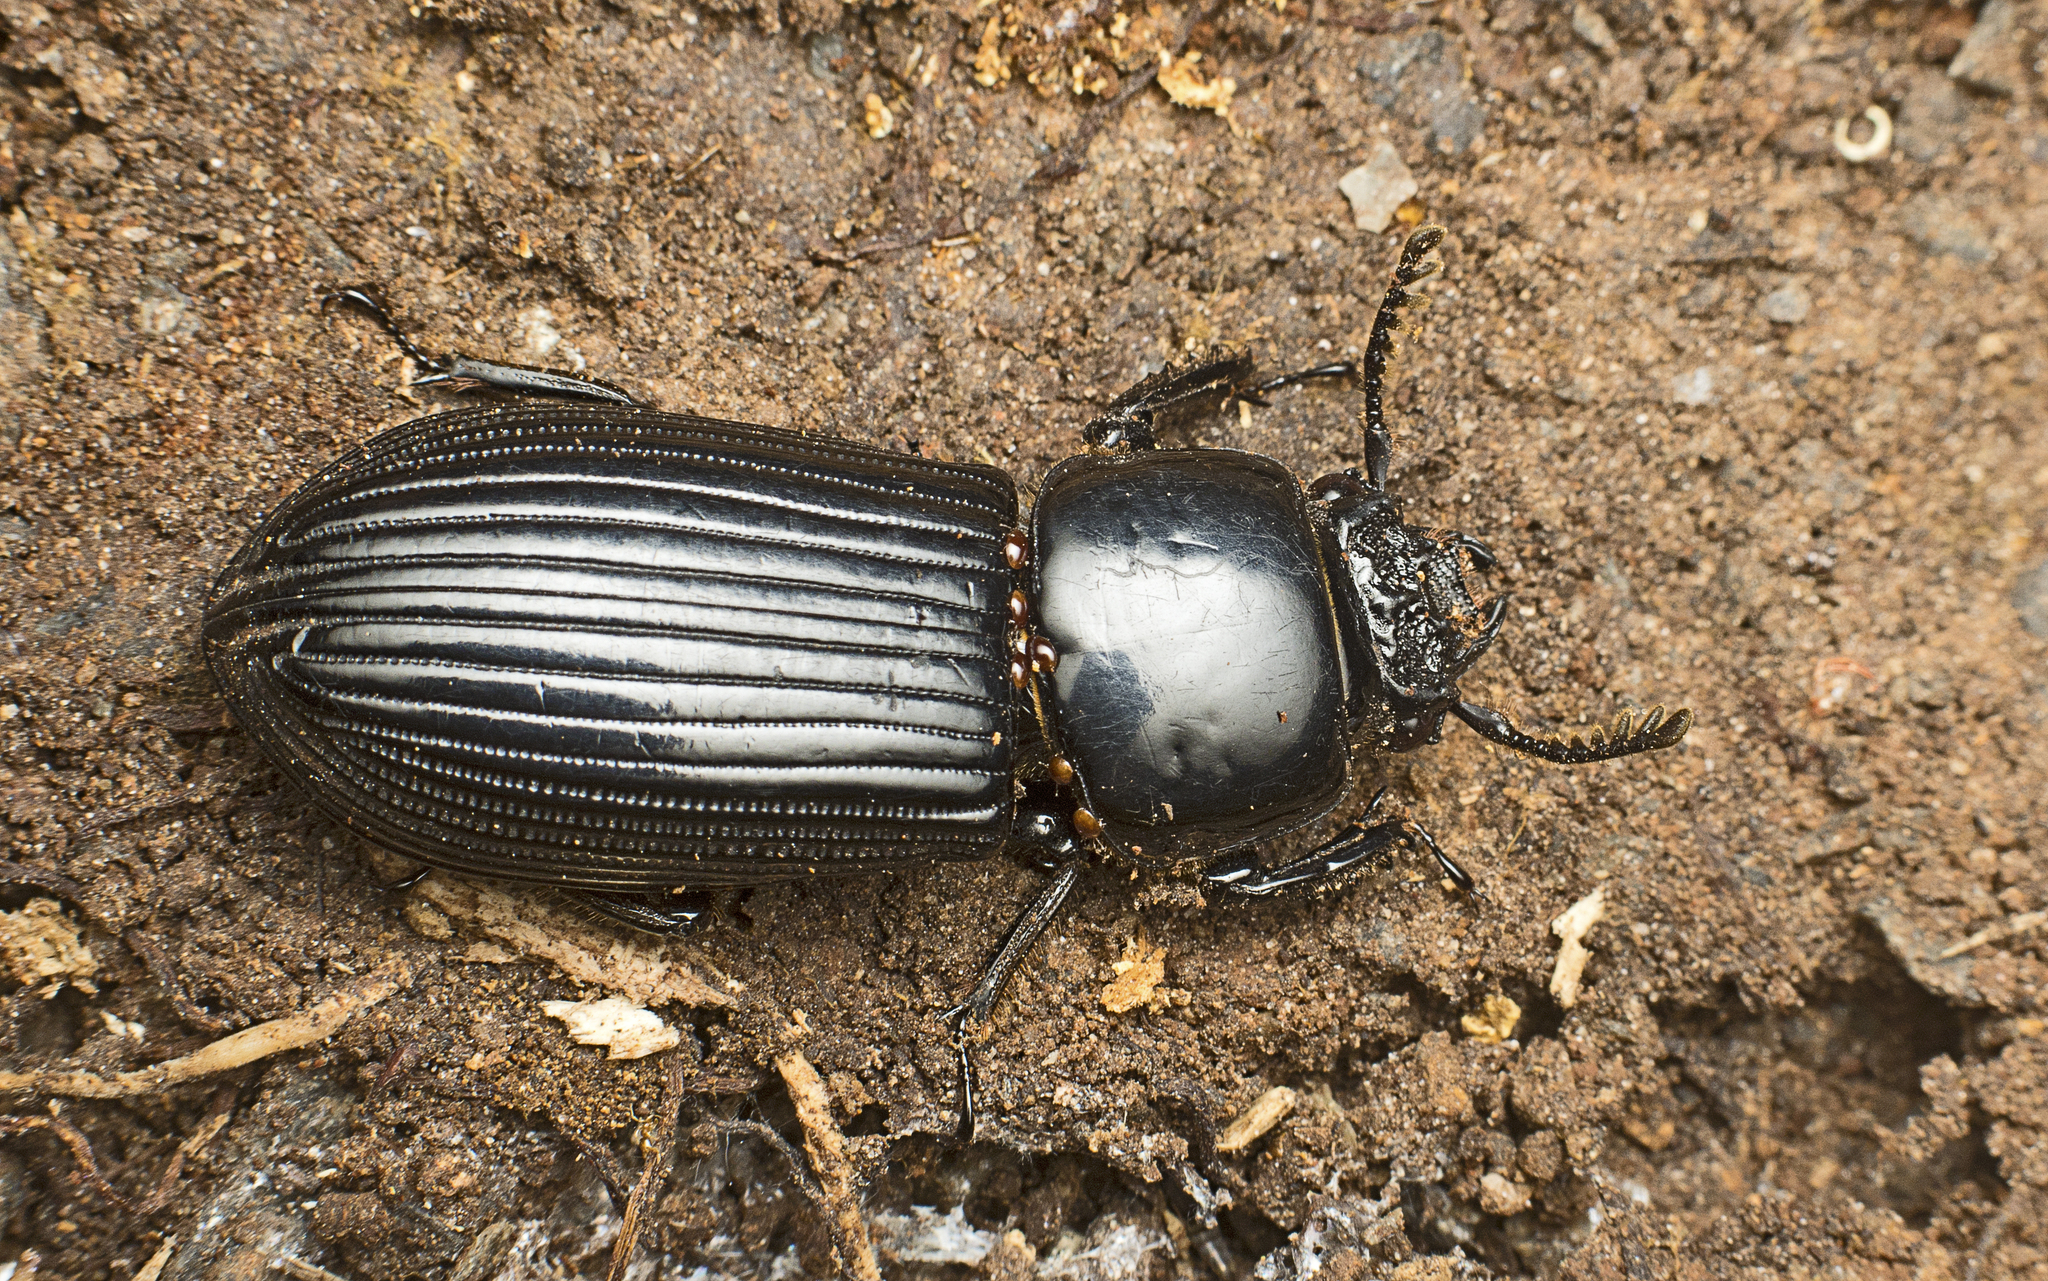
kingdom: Animalia
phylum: Arthropoda
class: Insecta
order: Coleoptera
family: Passalidae
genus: Pharochilus
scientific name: Pharochilus dilatatus
